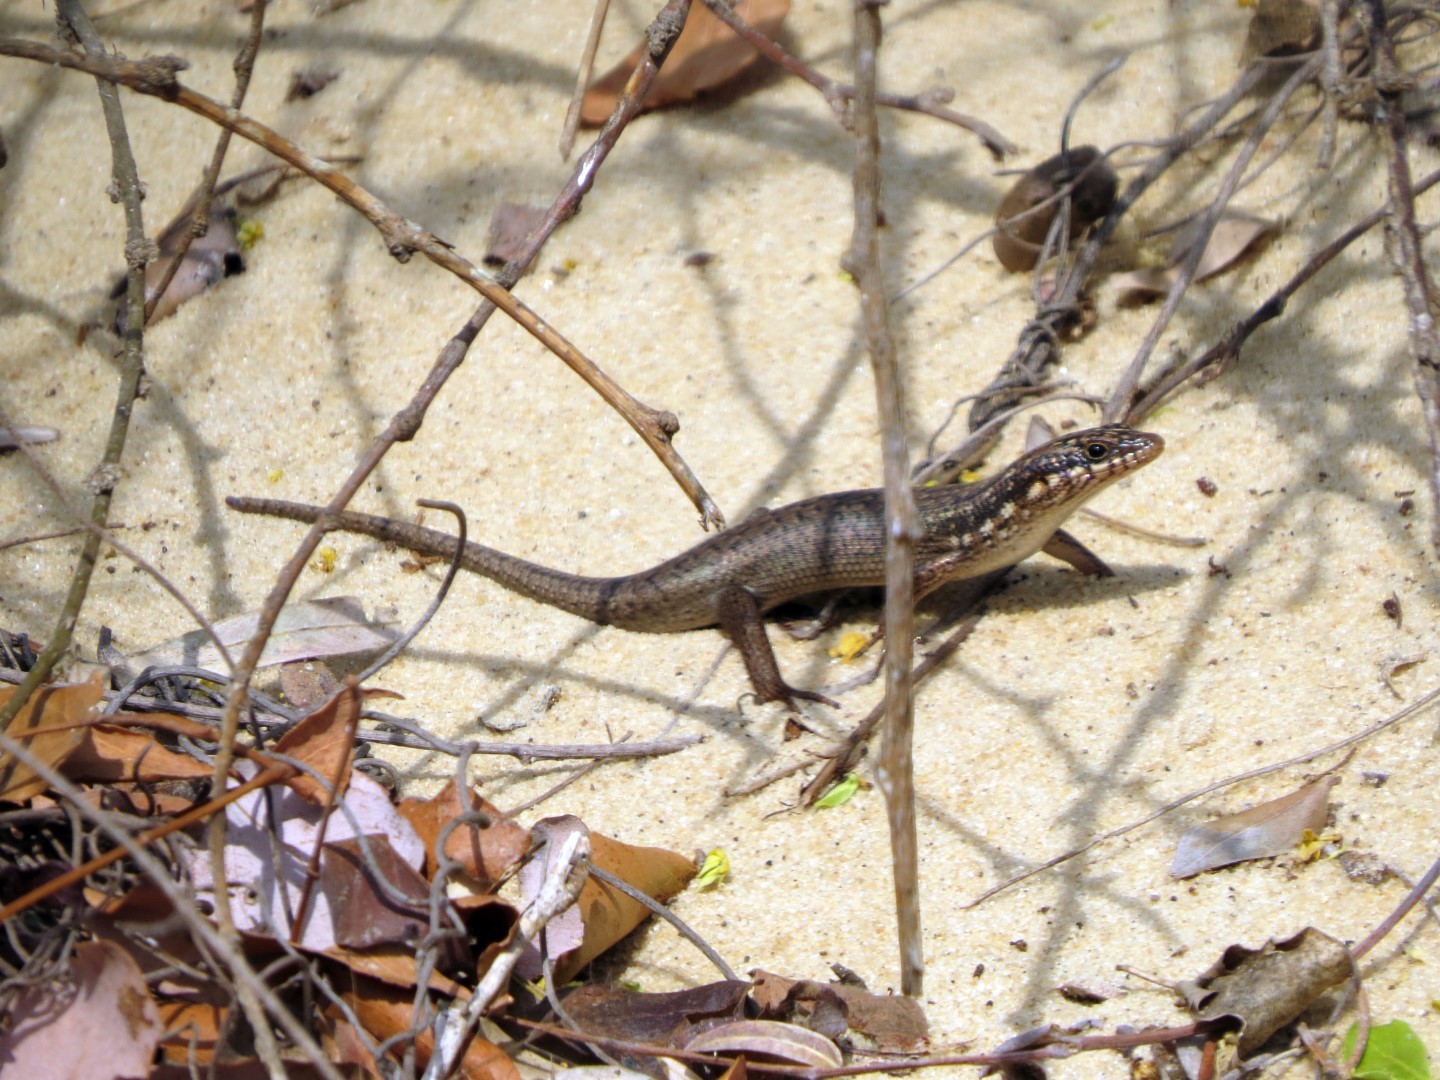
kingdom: Animalia
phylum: Chordata
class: Squamata
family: Scincidae
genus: Trachylepis
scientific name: Trachylepis aureopunctata
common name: Gold-spotted mabuya
